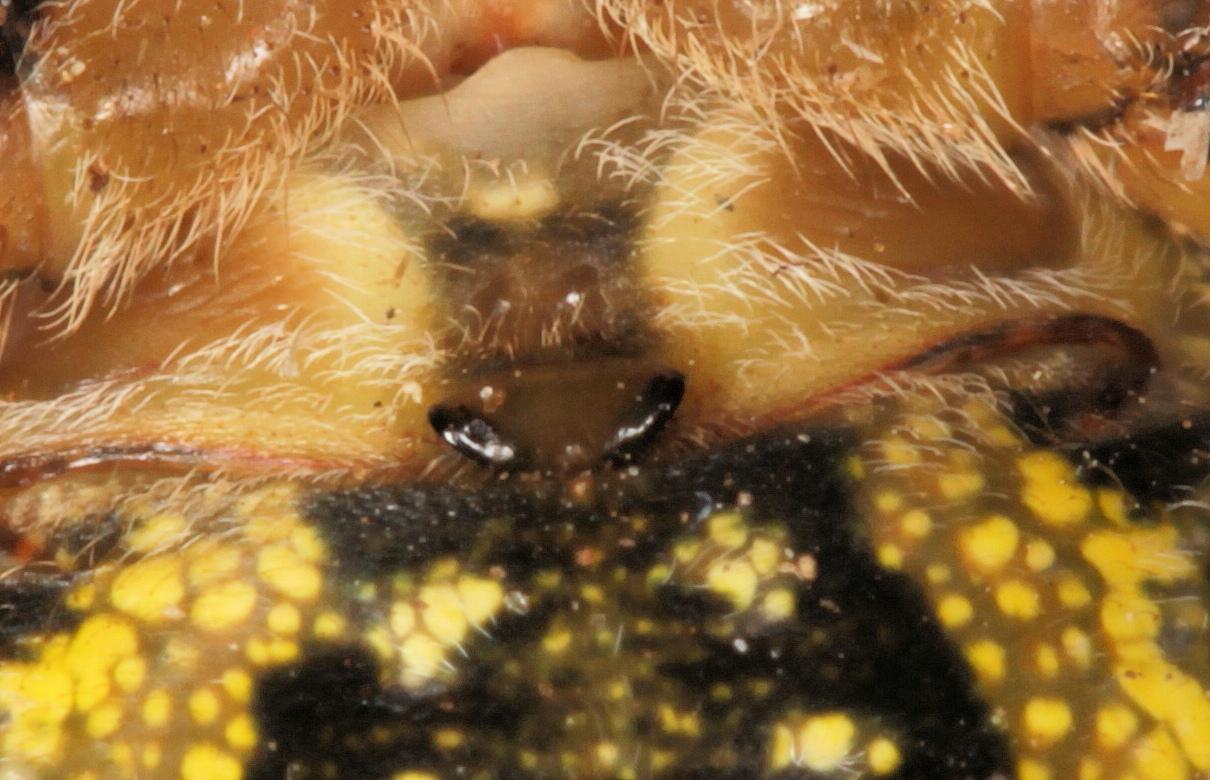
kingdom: Animalia
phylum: Arthropoda
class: Arachnida
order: Araneae
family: Araneidae
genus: Argiope
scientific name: Argiope flavipalpis
